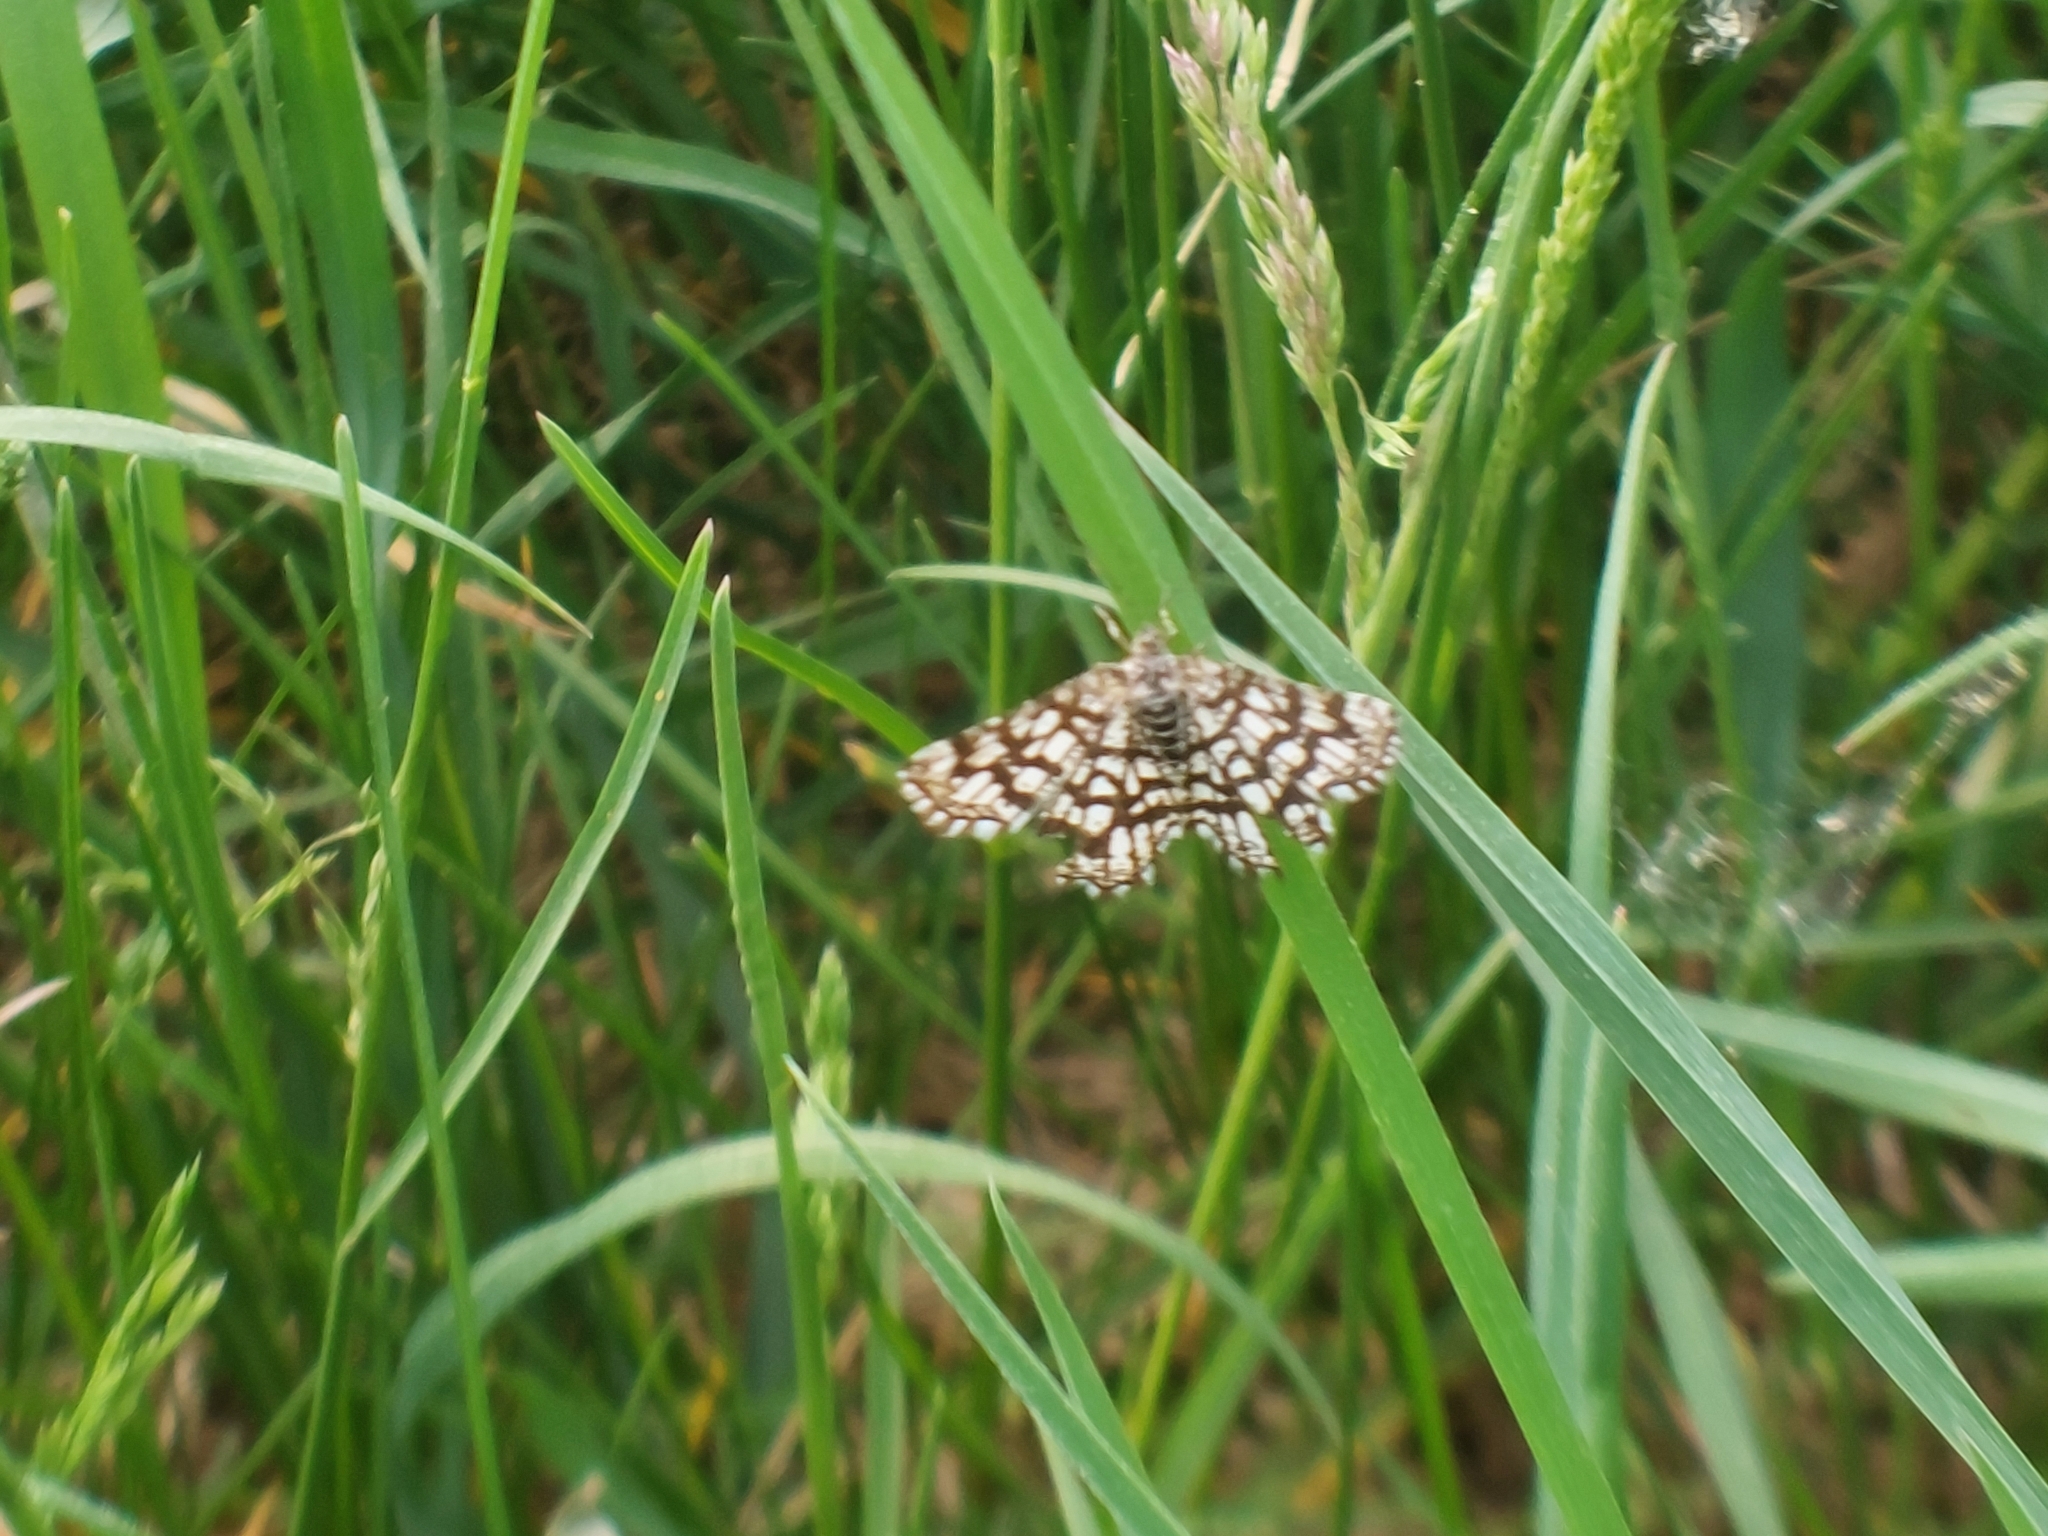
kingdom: Animalia
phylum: Arthropoda
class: Insecta
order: Lepidoptera
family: Geometridae
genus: Chiasmia
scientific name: Chiasmia clathrata
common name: Latticed heath
